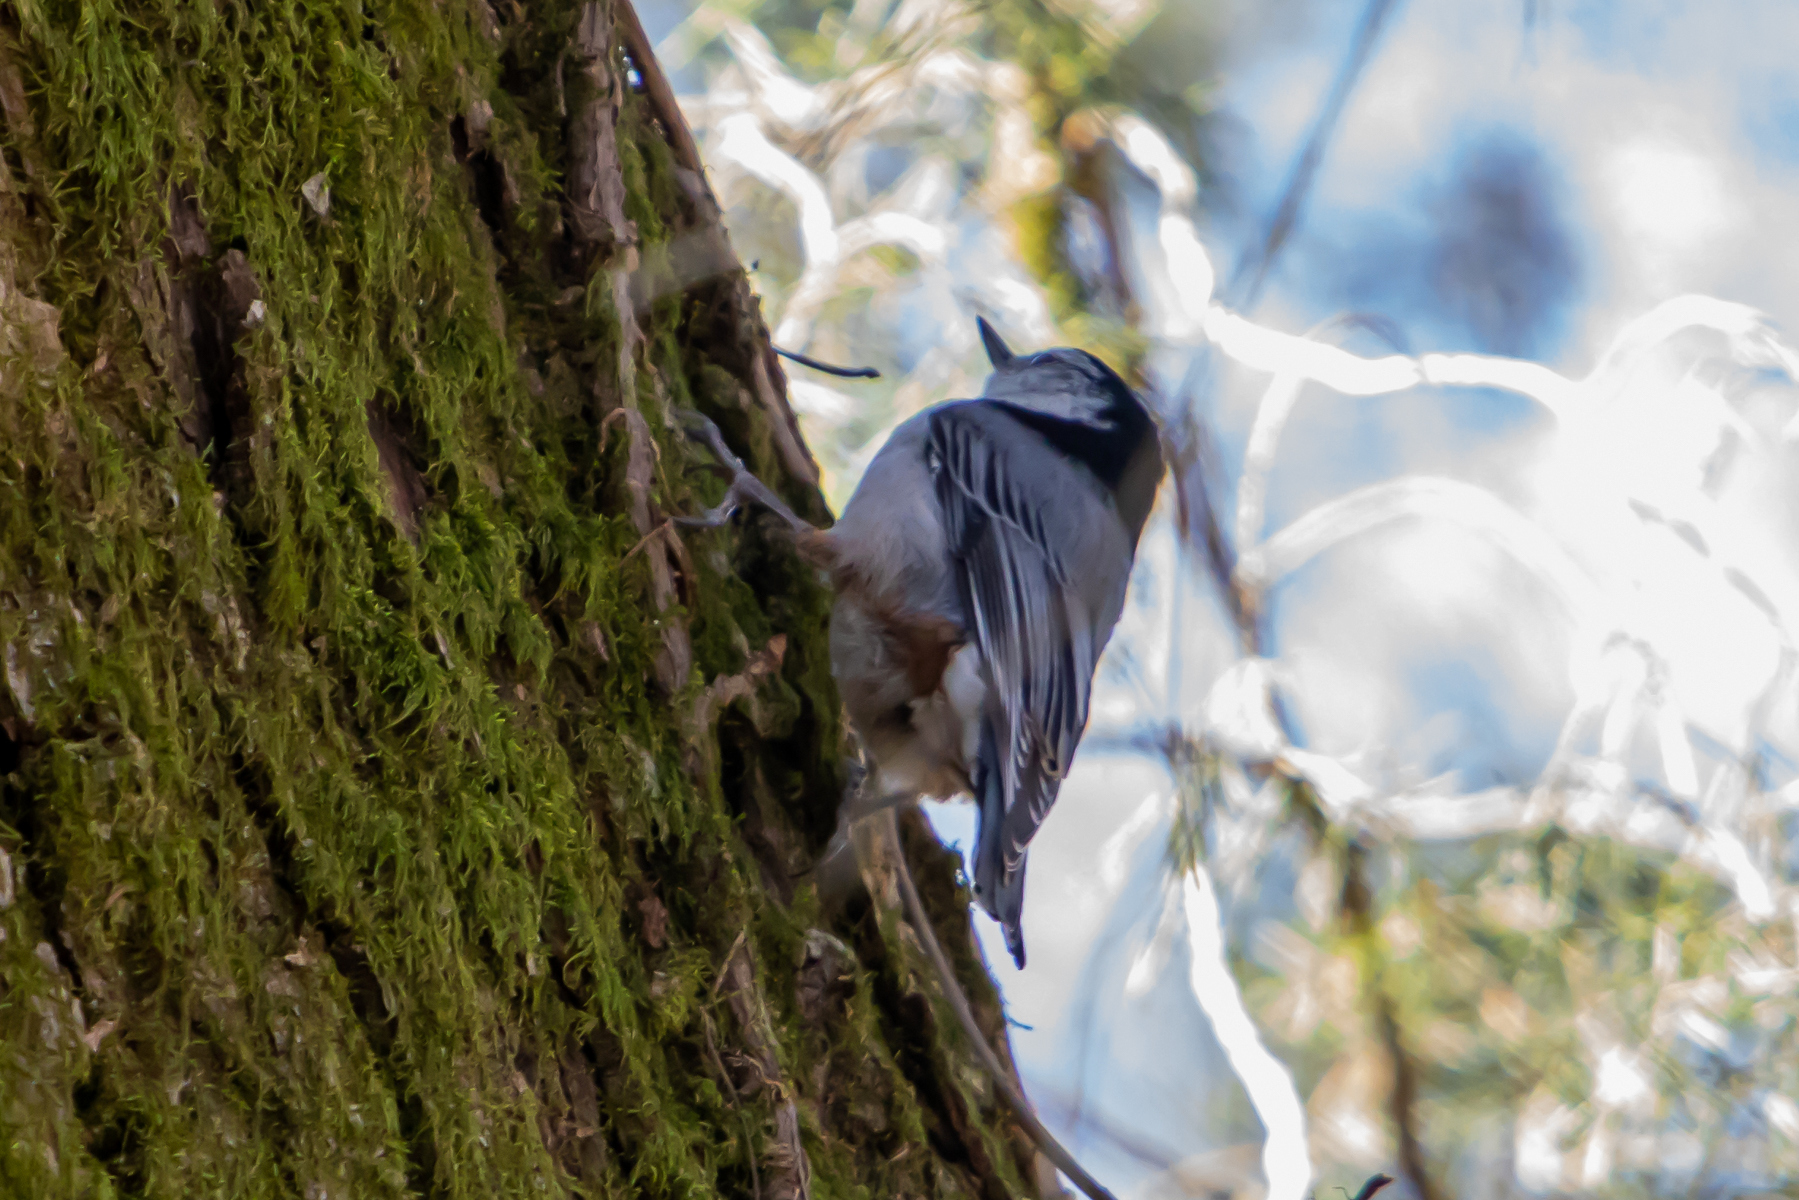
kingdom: Animalia
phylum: Chordata
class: Aves
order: Passeriformes
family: Sittidae
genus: Sitta
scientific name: Sitta carolinensis
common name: White-breasted nuthatch
